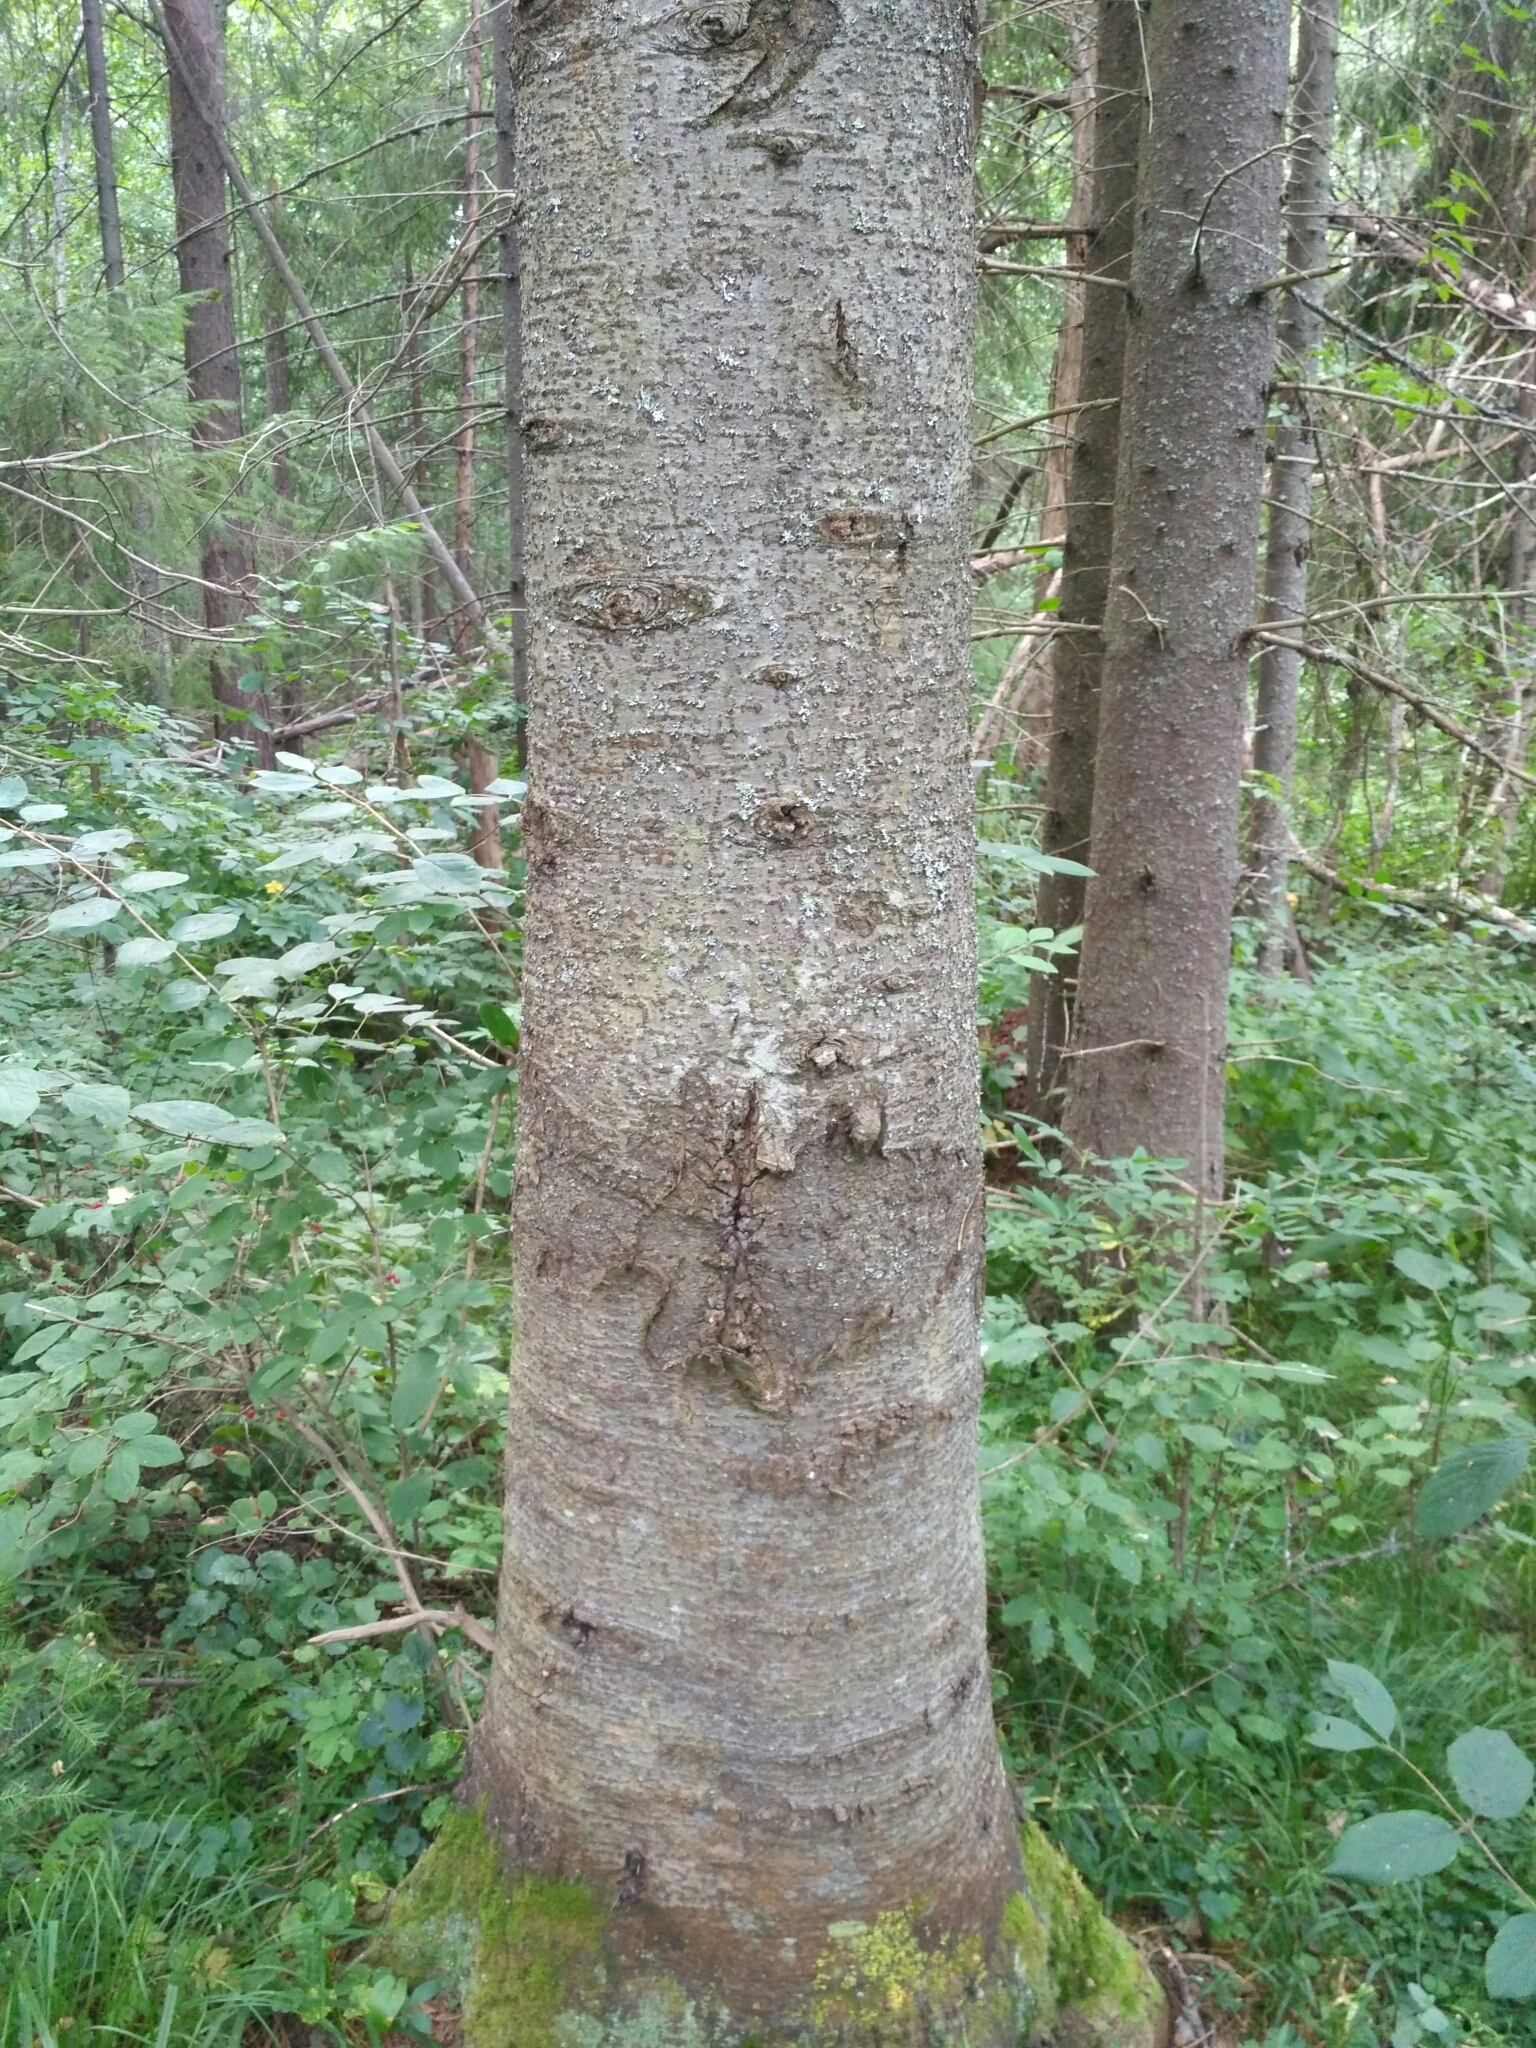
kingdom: Plantae
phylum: Tracheophyta
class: Pinopsida
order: Pinales
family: Pinaceae
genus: Abies
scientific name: Abies sibirica
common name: Siberian fir
